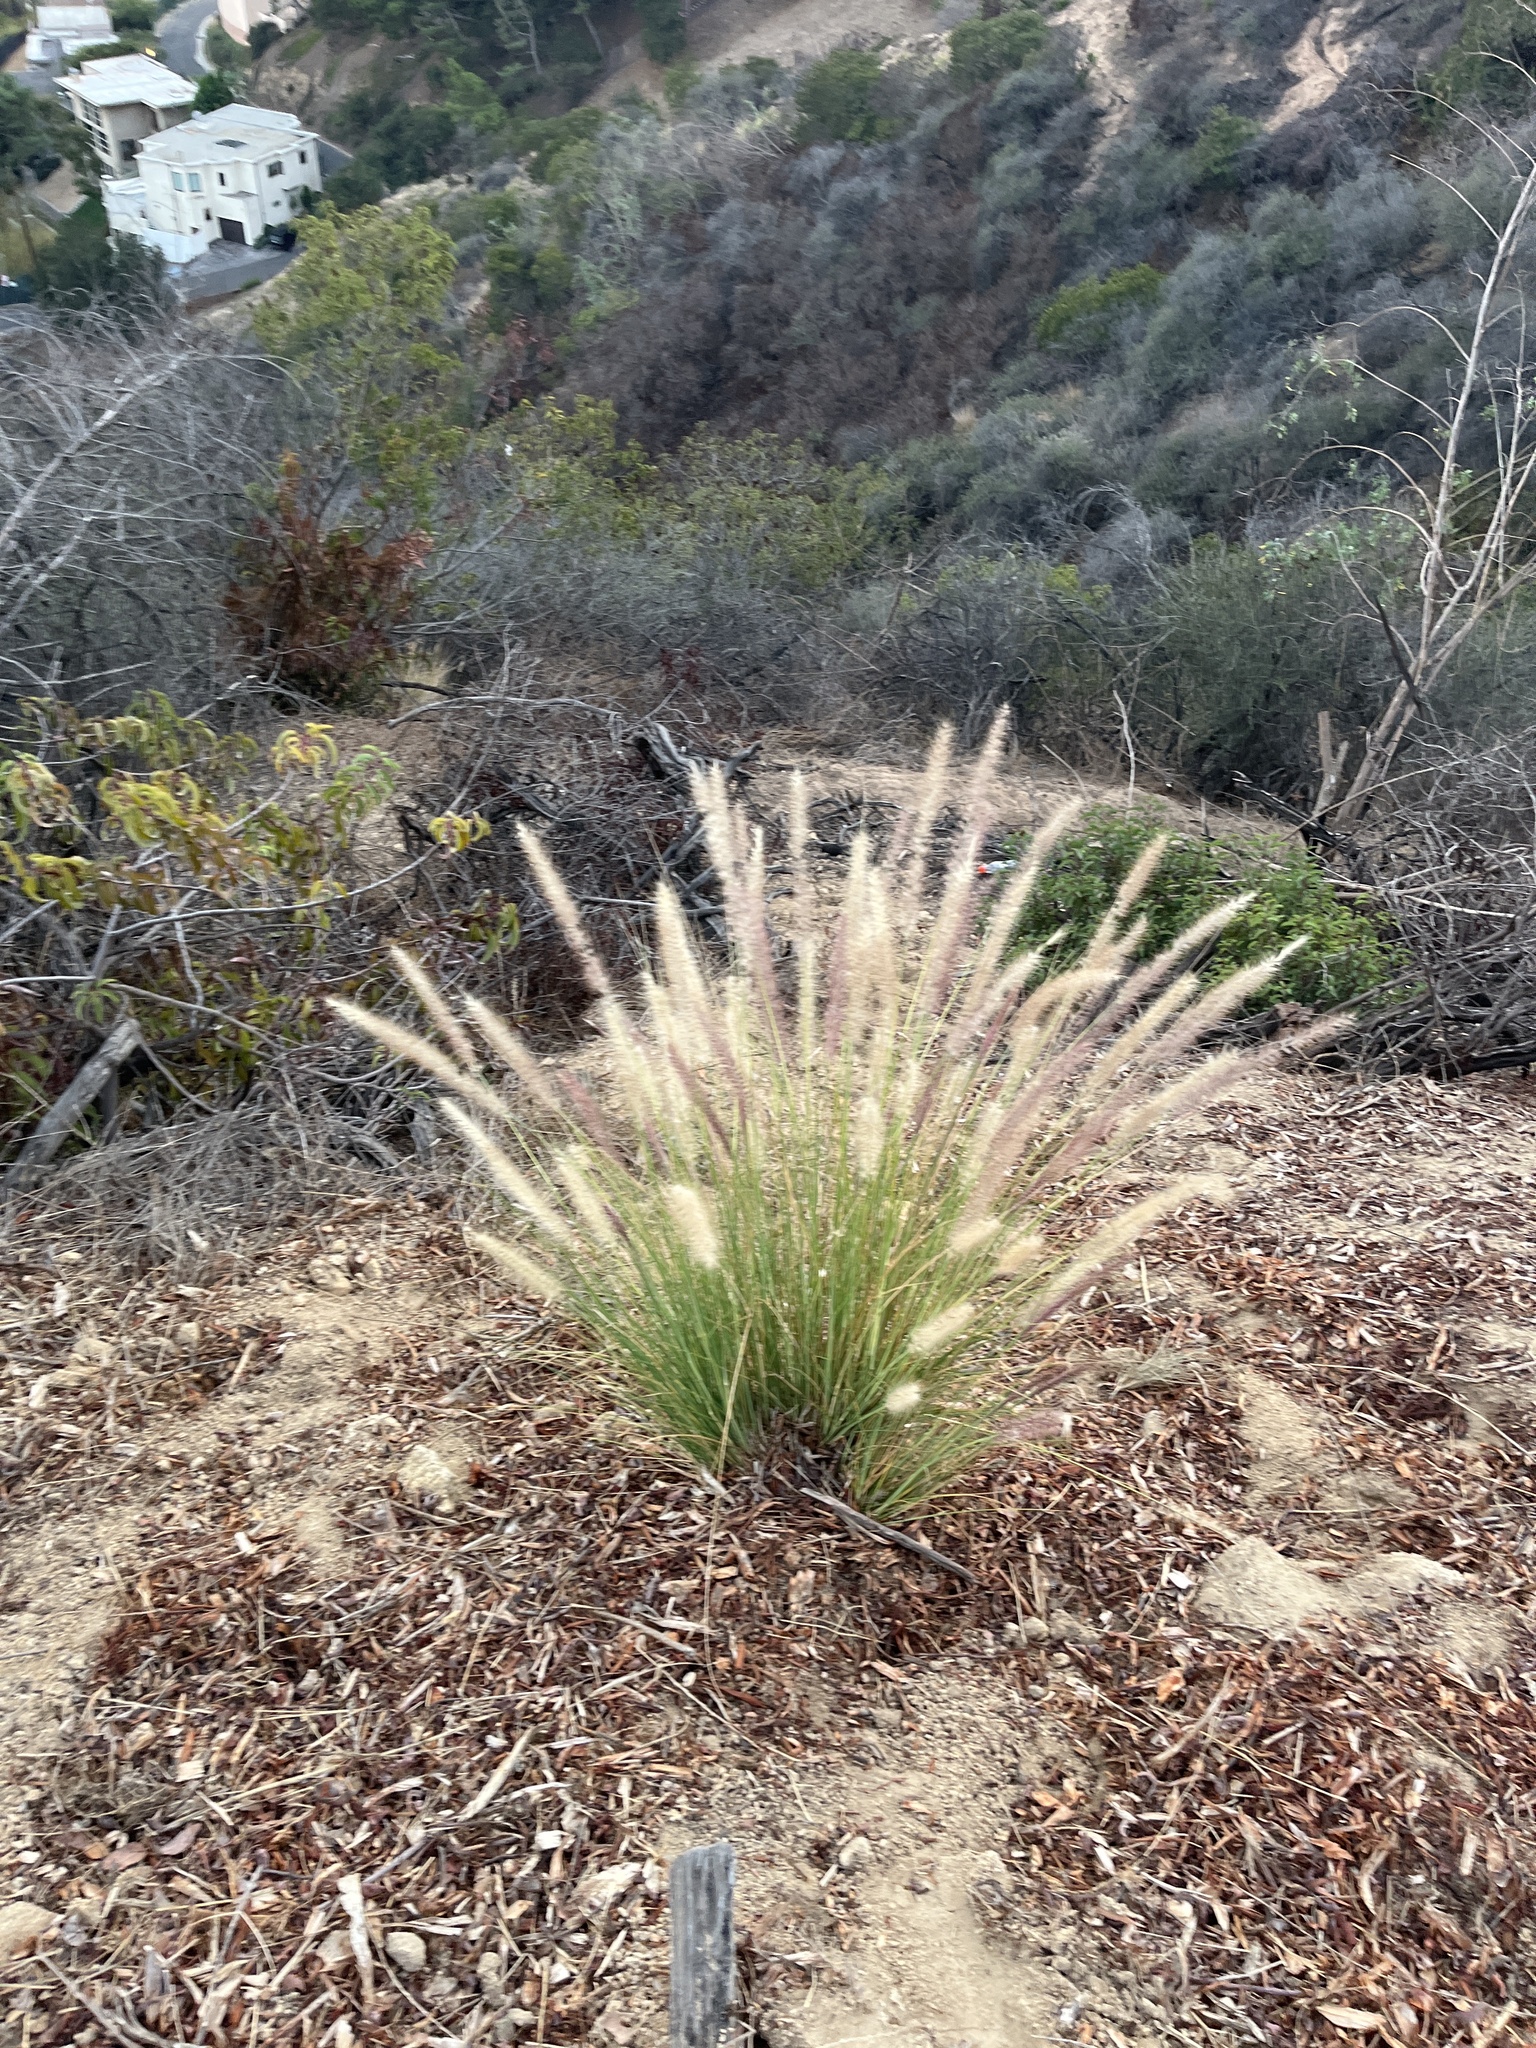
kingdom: Plantae
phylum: Tracheophyta
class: Liliopsida
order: Poales
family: Poaceae
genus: Cenchrus
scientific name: Cenchrus setaceus
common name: Crimson fountaingrass
